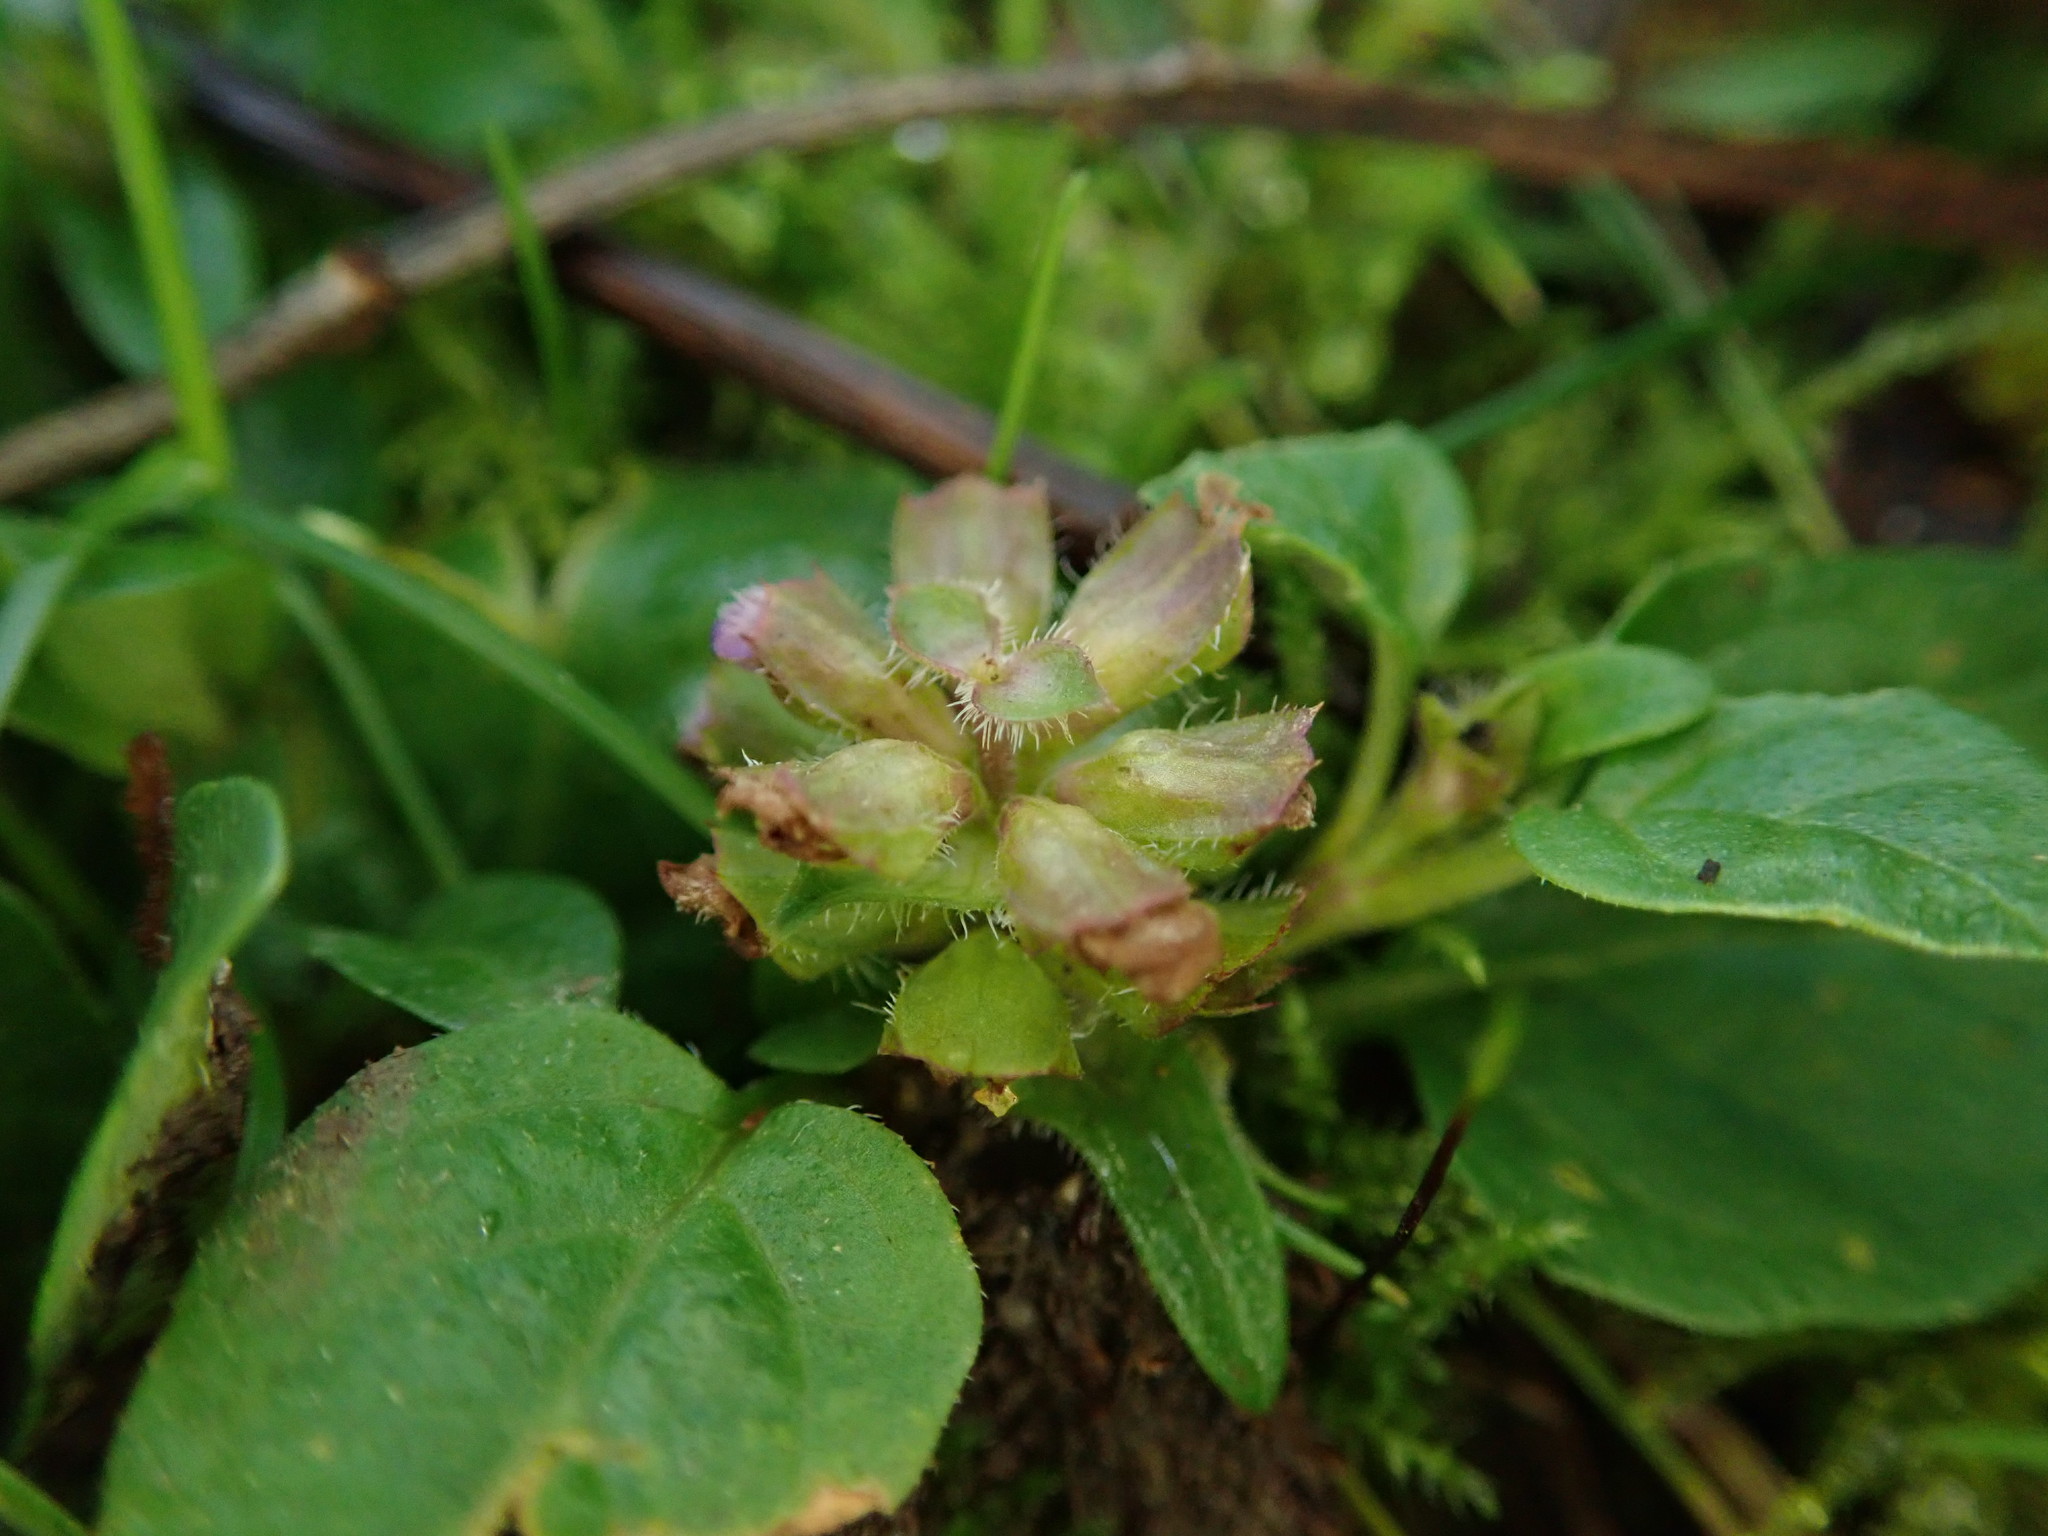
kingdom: Plantae
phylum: Tracheophyta
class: Magnoliopsida
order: Lamiales
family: Lamiaceae
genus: Prunella
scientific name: Prunella vulgaris
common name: Heal-all
